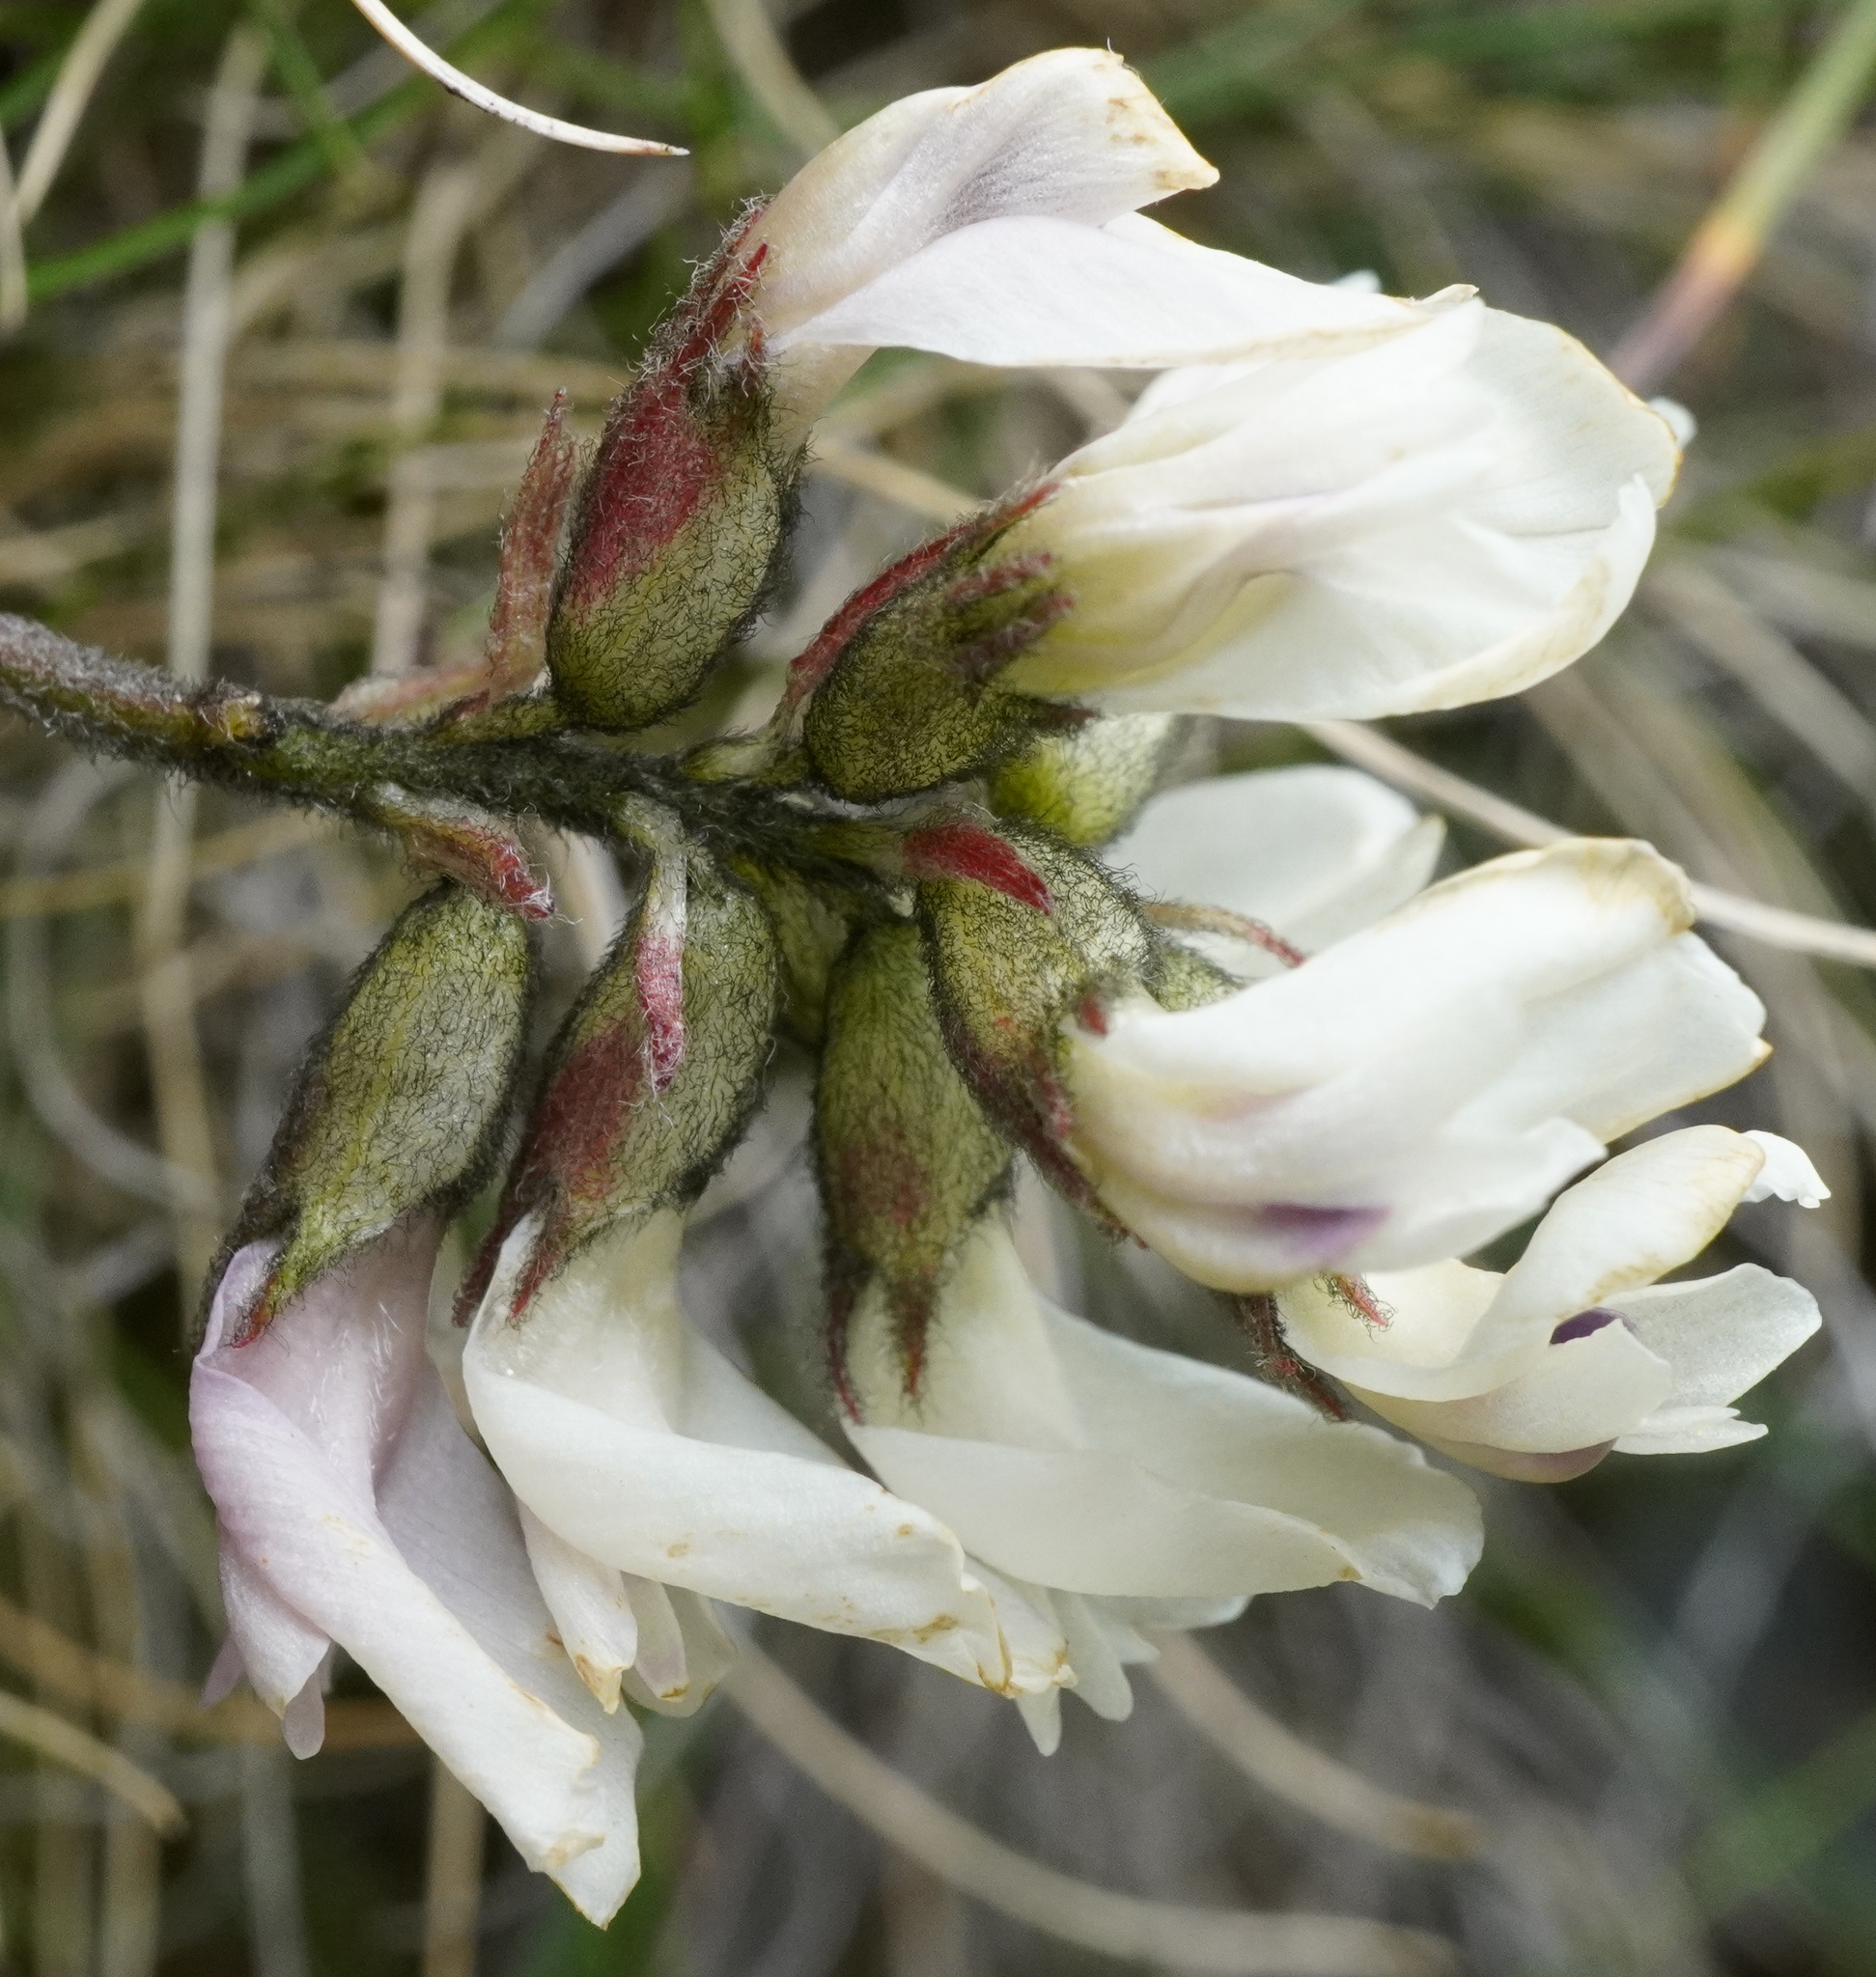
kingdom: Plantae
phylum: Tracheophyta
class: Magnoliopsida
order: Fabales
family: Fabaceae
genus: Astragalus
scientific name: Astragalus australis
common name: Indian milk-vetch
